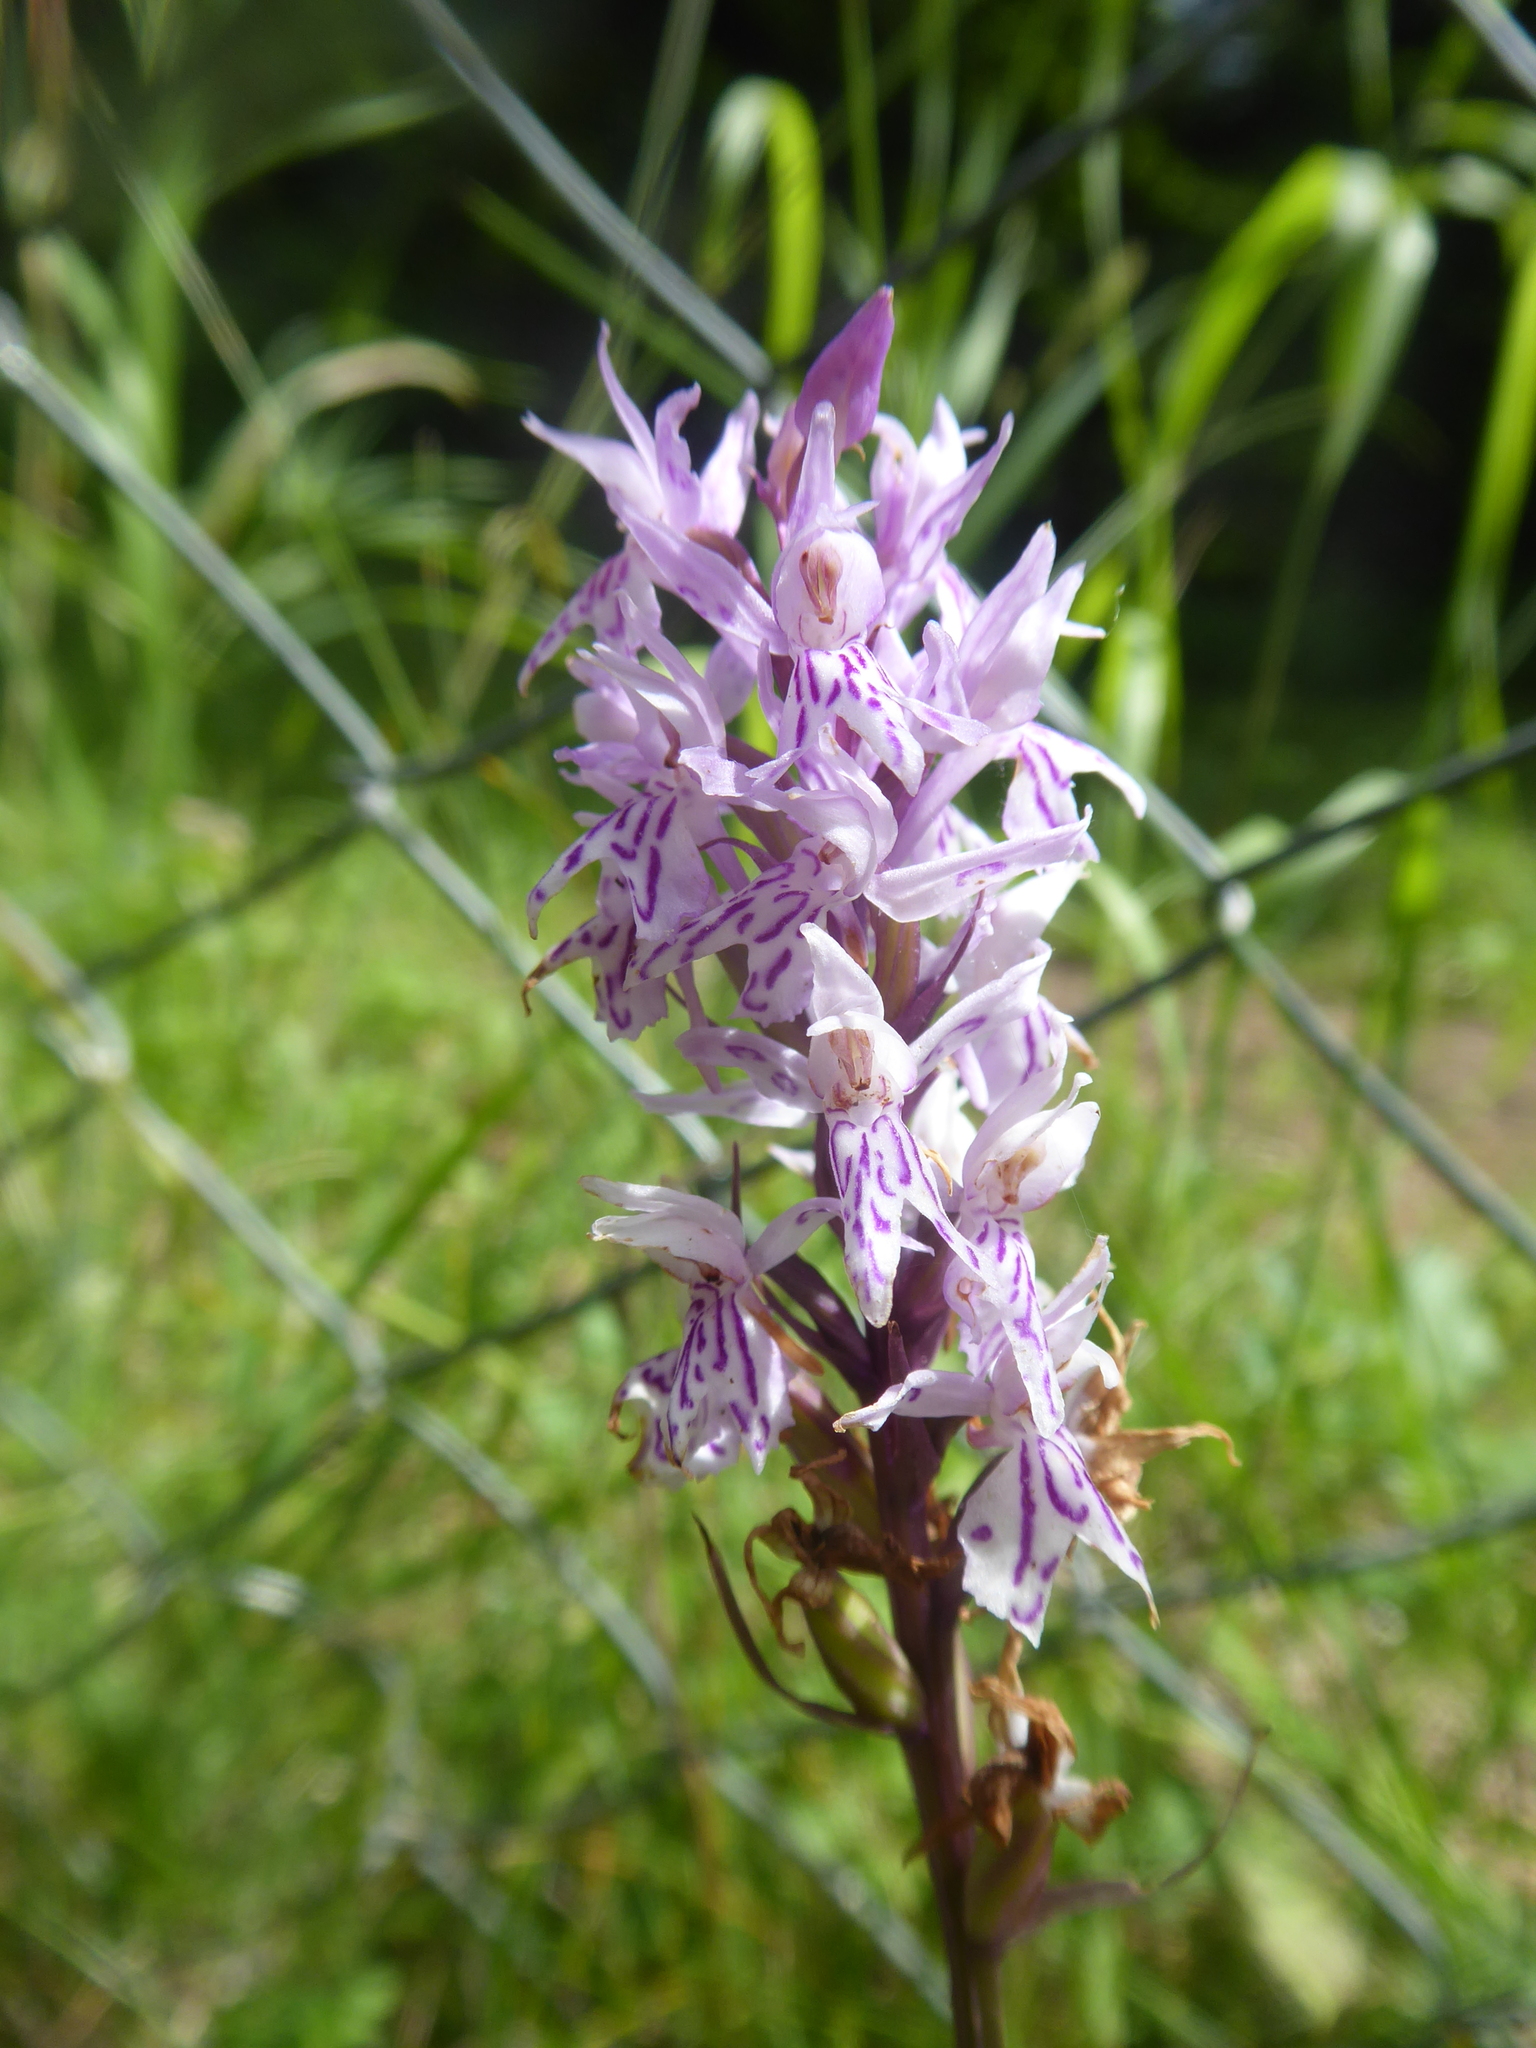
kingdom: Plantae
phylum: Tracheophyta
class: Liliopsida
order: Asparagales
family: Orchidaceae
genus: Dactylorhiza
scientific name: Dactylorhiza maculata
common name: Heath spotted-orchid
